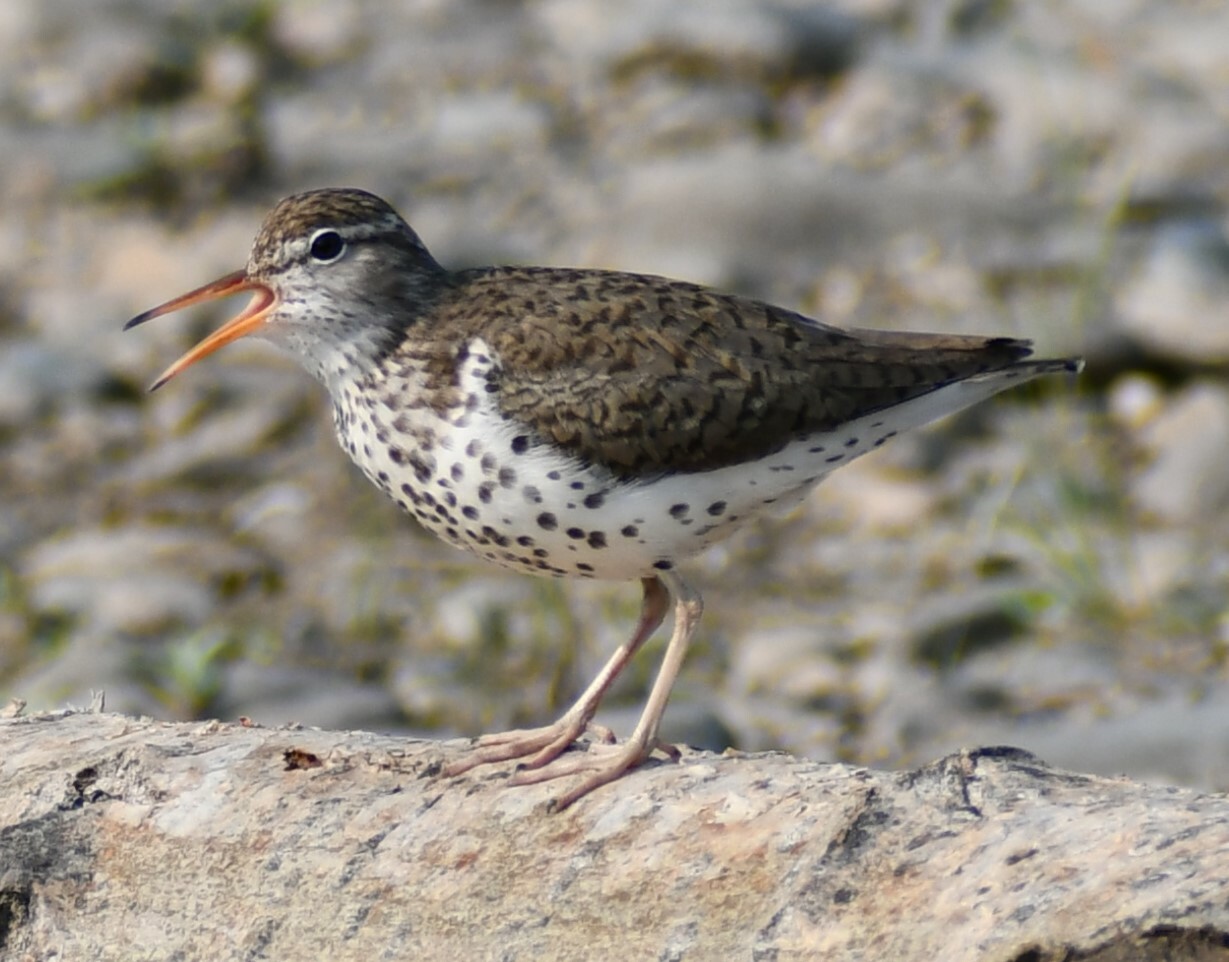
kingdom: Animalia
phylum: Chordata
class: Aves
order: Charadriiformes
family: Scolopacidae
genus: Actitis
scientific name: Actitis macularius
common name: Spotted sandpiper
